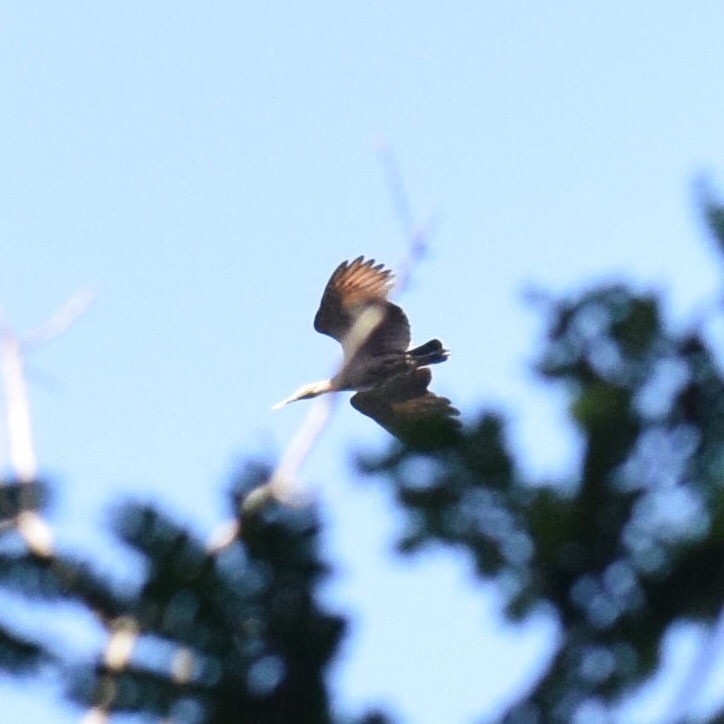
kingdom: Animalia
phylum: Chordata
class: Aves
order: Pelecaniformes
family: Scopidae
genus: Scopus
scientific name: Scopus umbretta
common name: Hamerkop
